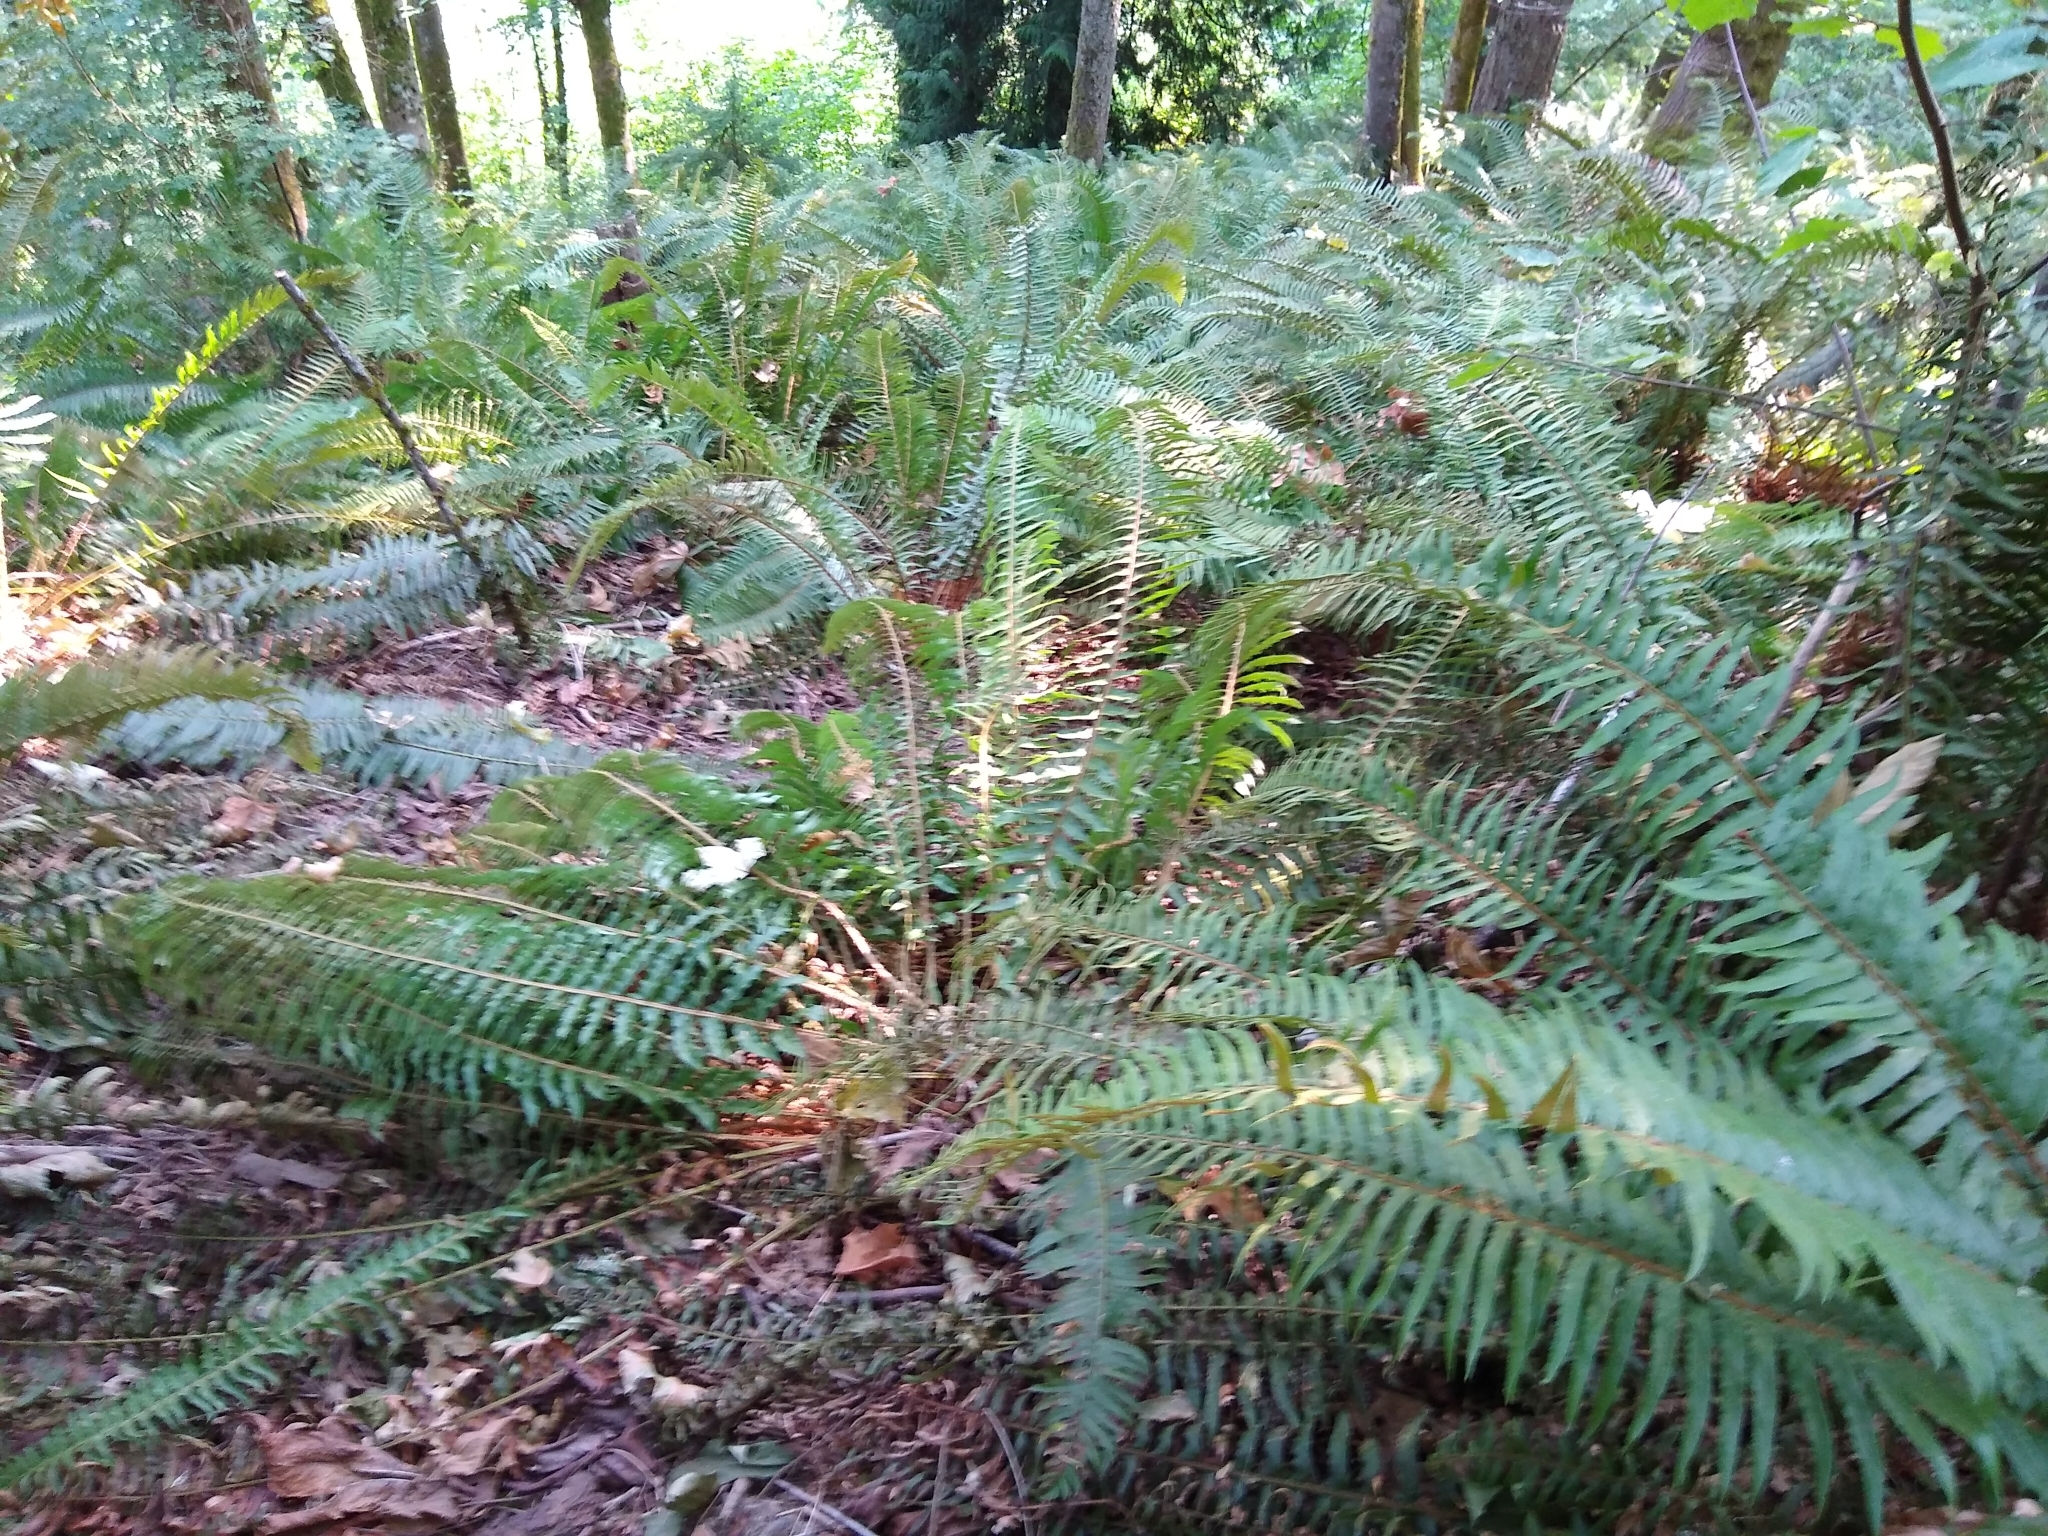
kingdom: Plantae
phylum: Tracheophyta
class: Polypodiopsida
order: Polypodiales
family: Dryopteridaceae
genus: Polystichum
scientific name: Polystichum munitum
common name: Western sword-fern
